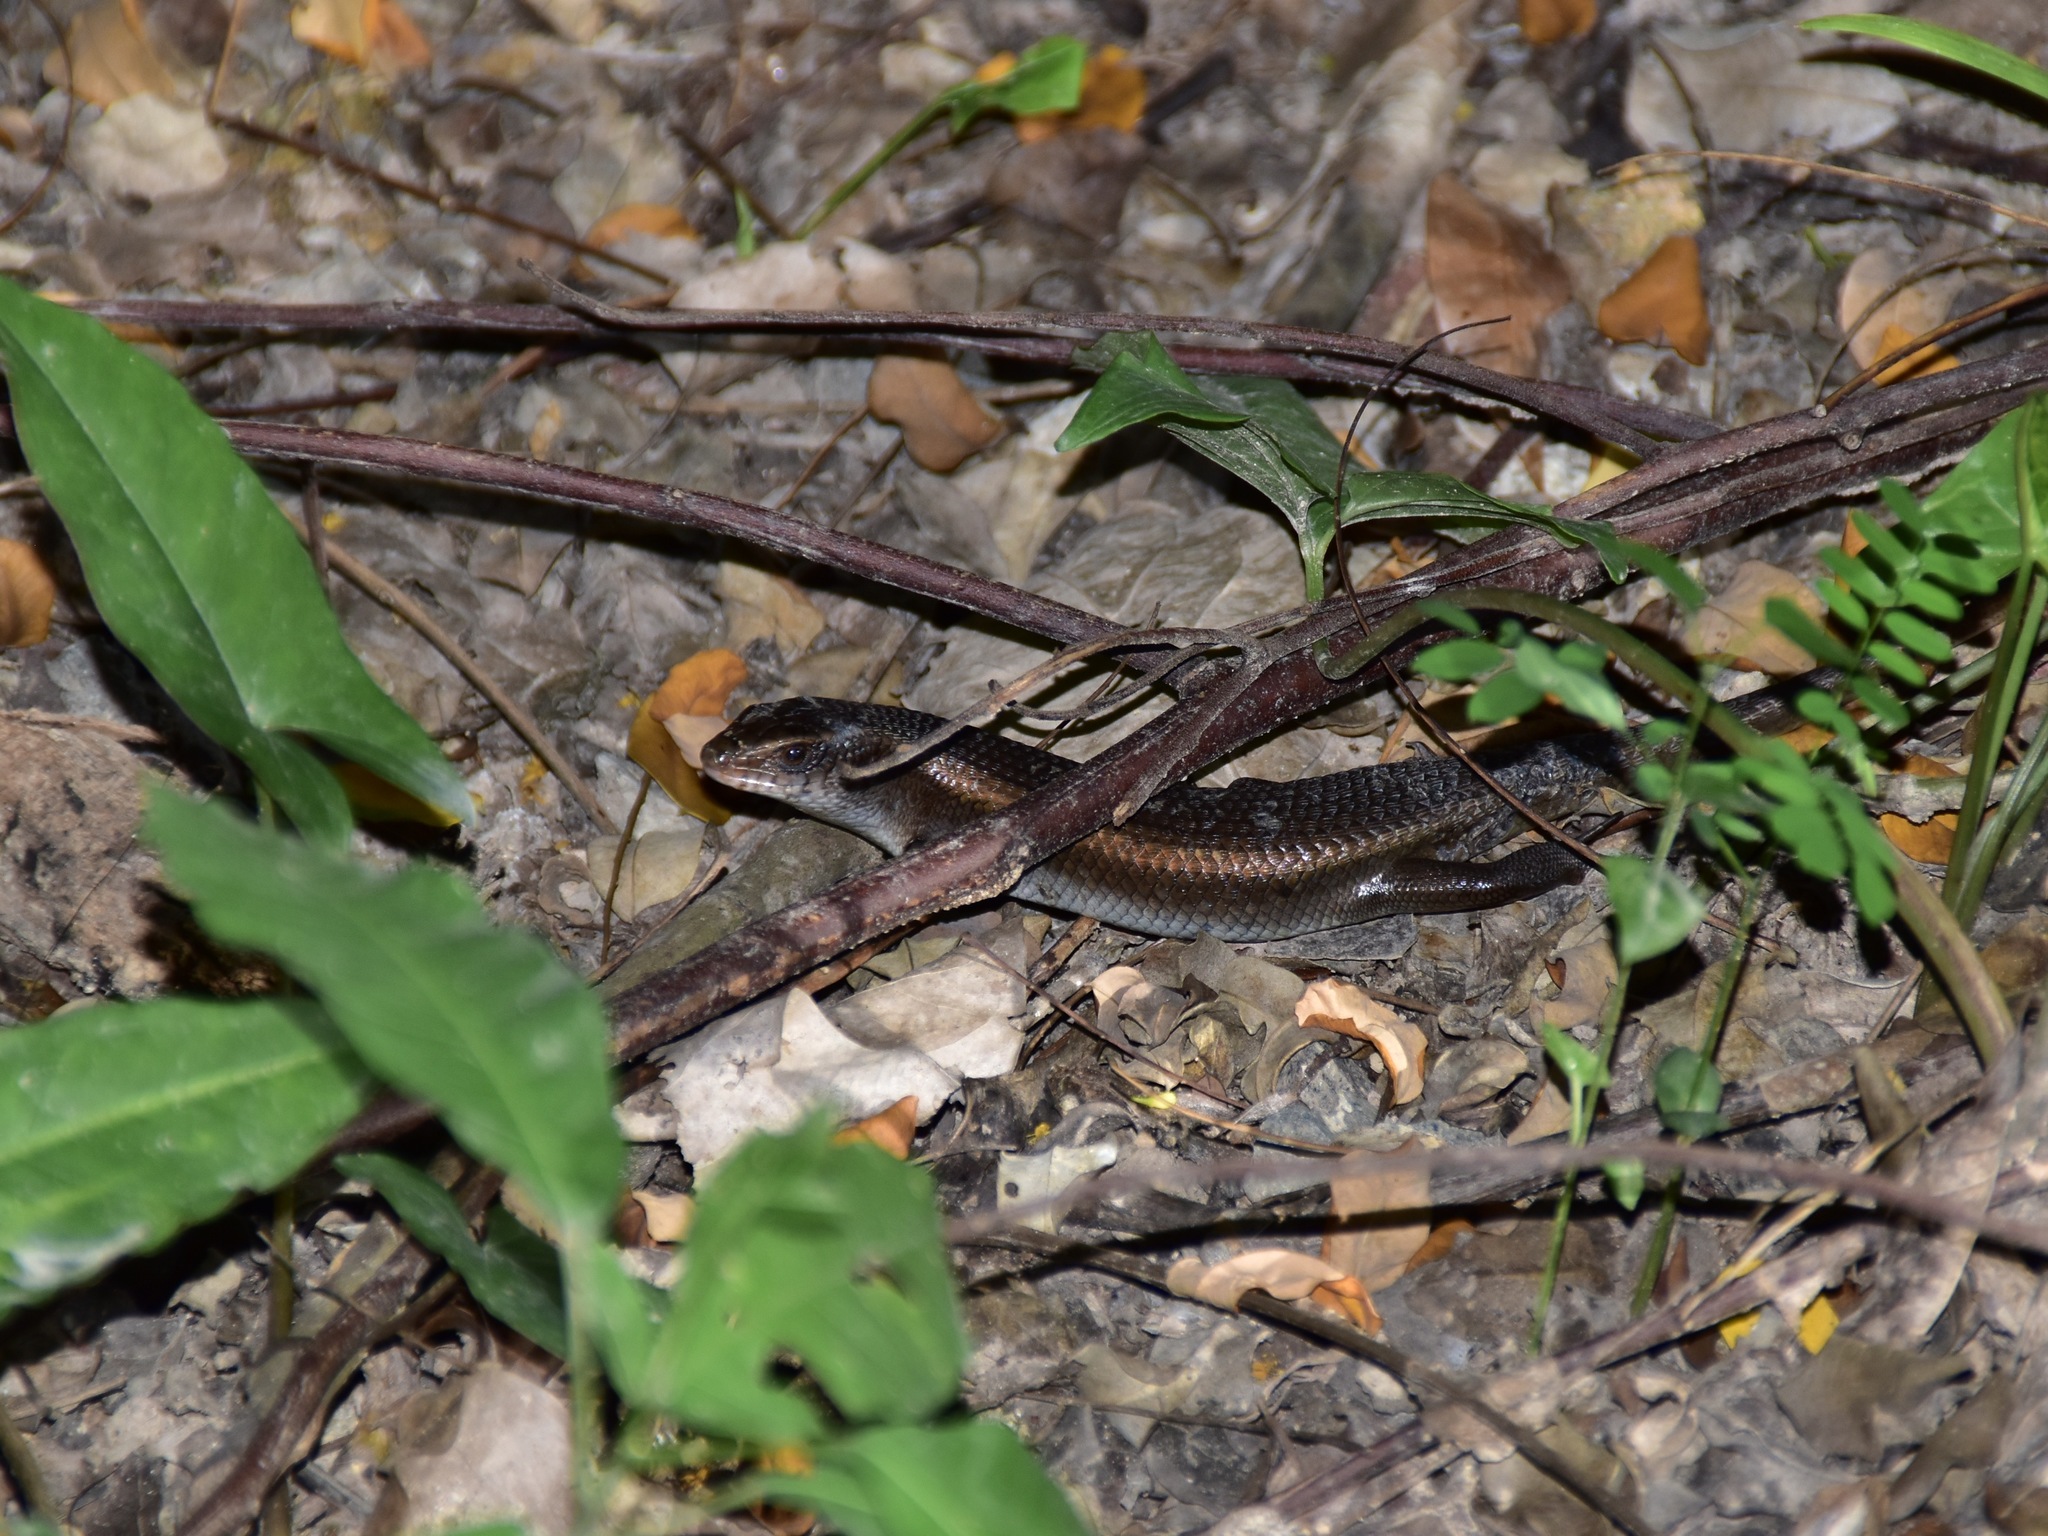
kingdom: Animalia
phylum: Chordata
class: Squamata
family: Scincidae
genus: Eutropis
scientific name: Eutropis multifasciata
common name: Common mabuya
